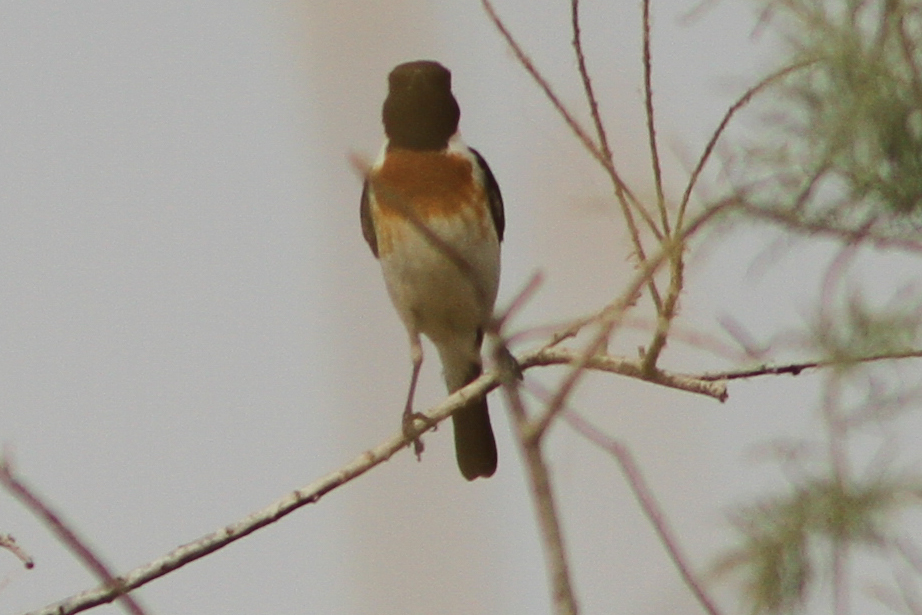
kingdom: Animalia
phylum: Chordata
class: Aves
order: Passeriformes
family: Muscicapidae
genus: Saxicola
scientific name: Saxicola torquatus
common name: African stonechat
